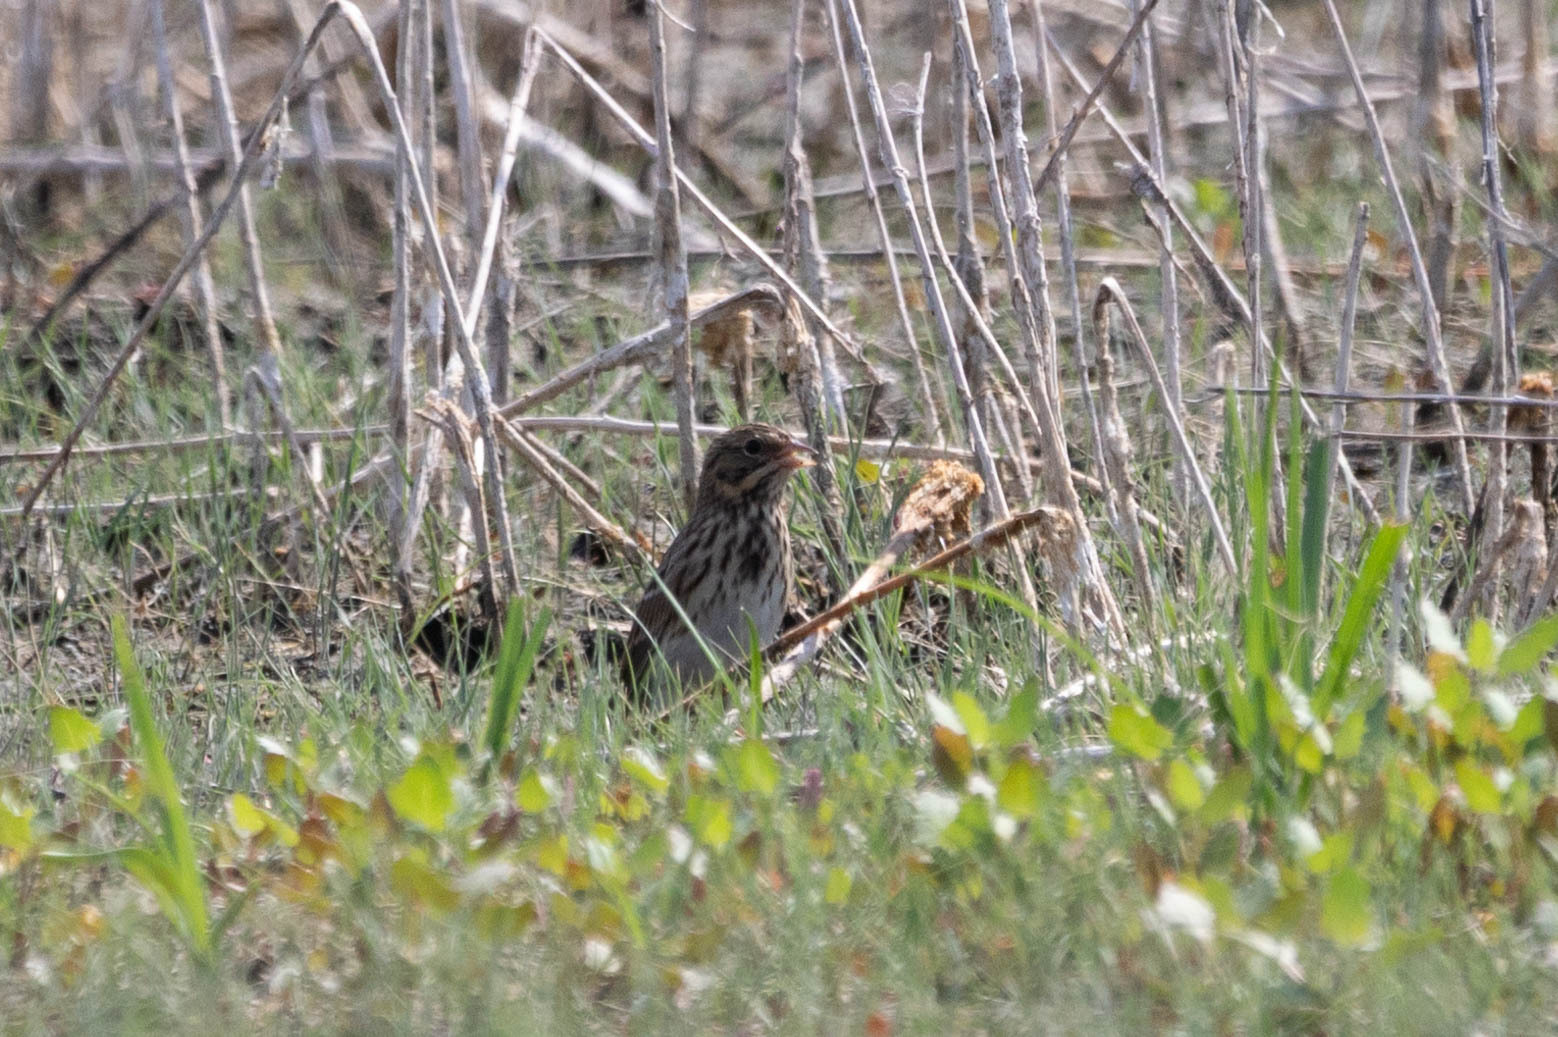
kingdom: Animalia
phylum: Chordata
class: Aves
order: Passeriformes
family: Passerellidae
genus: Passerculus
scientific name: Passerculus sandwichensis
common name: Savannah sparrow
